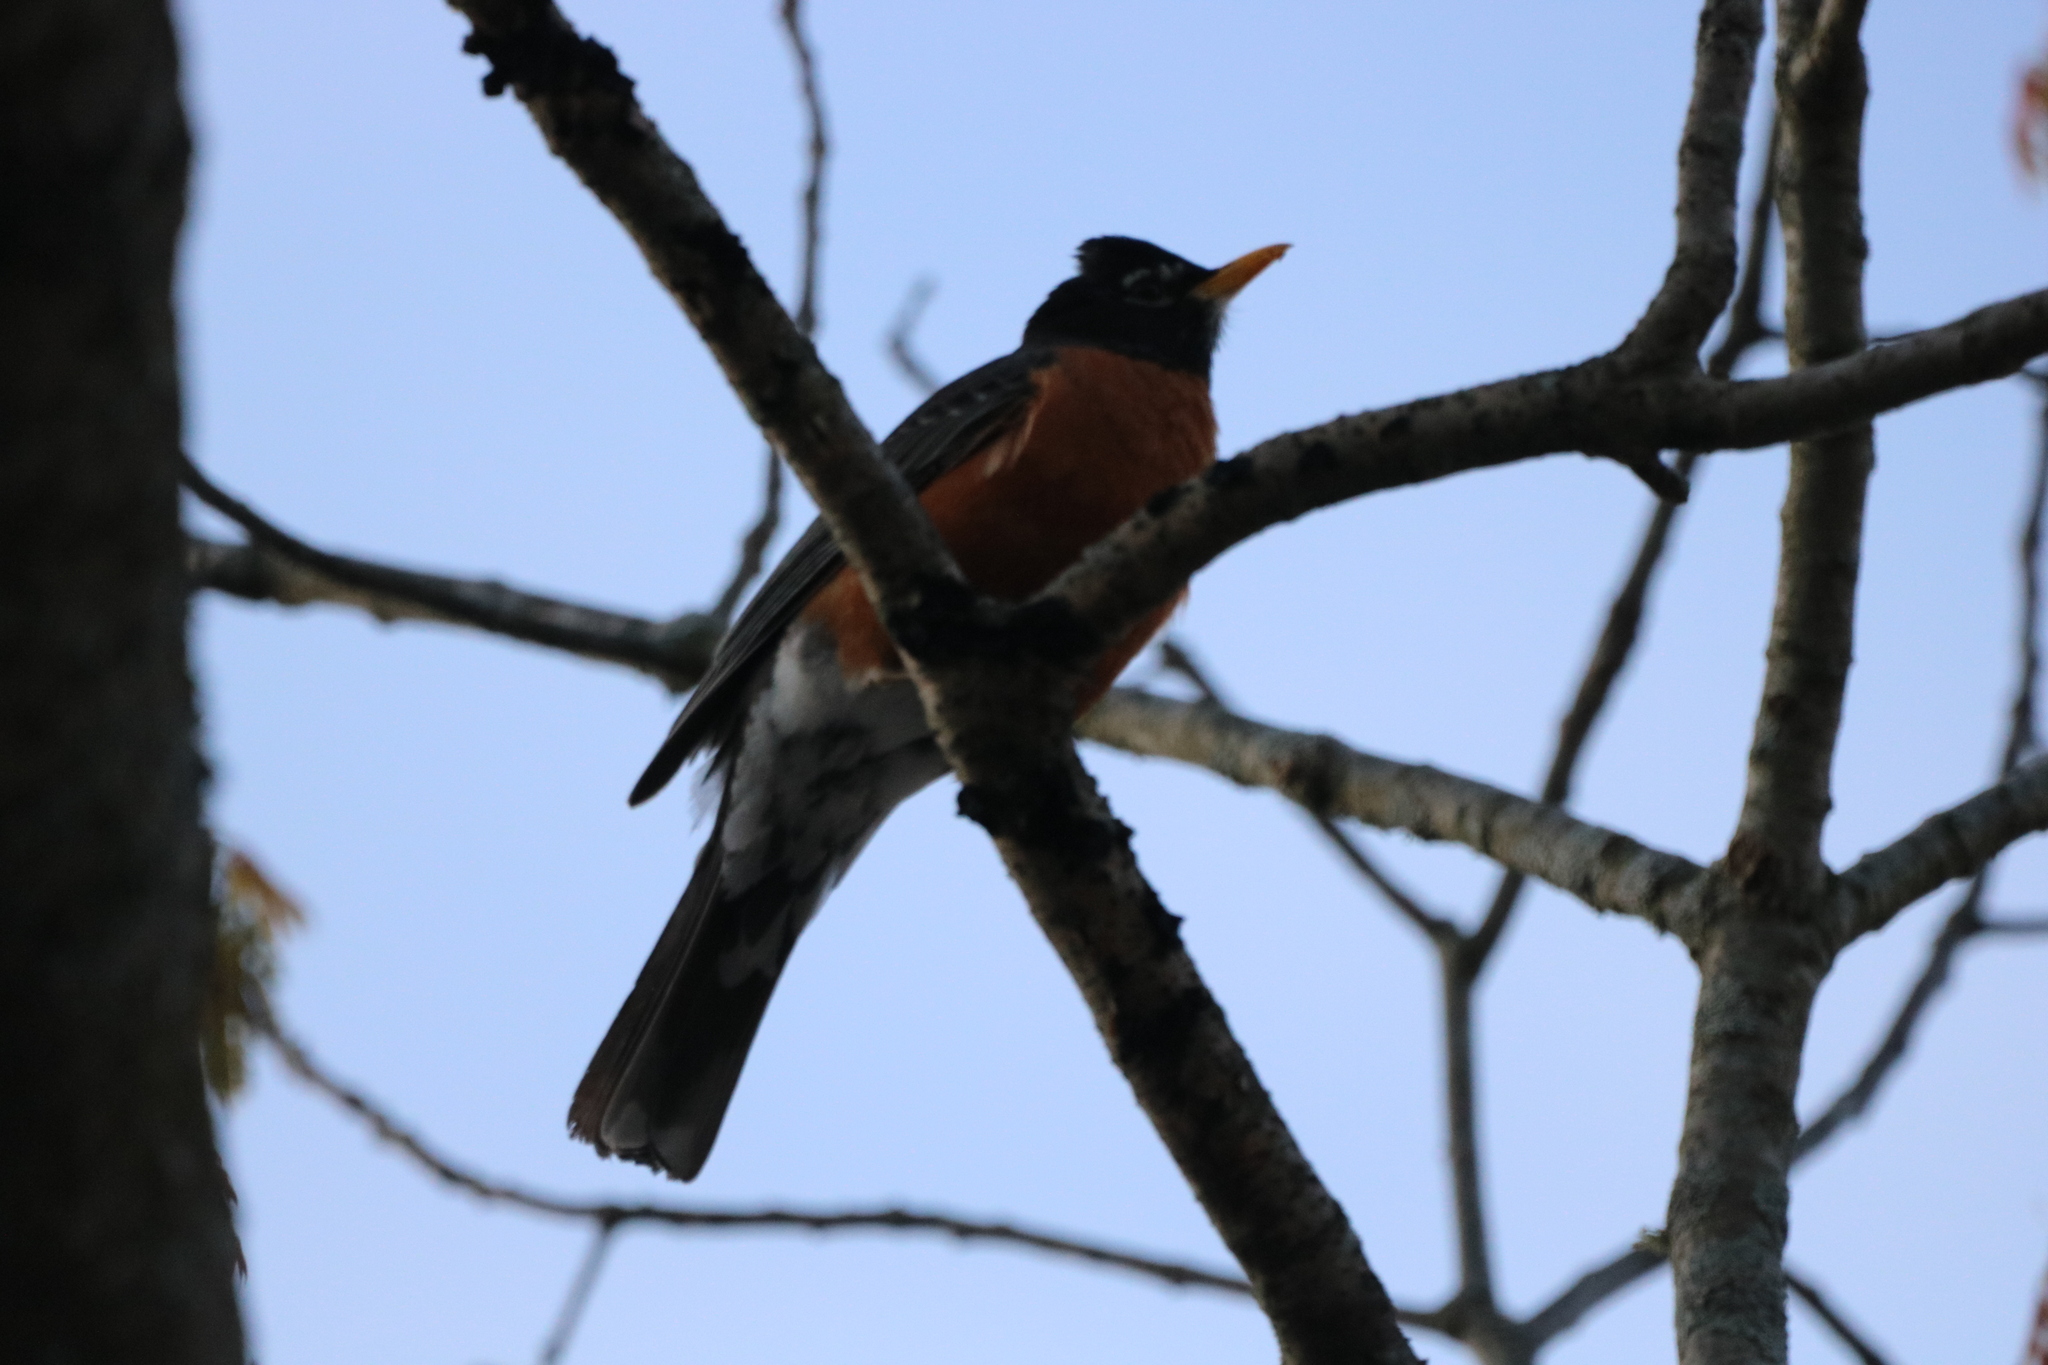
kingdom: Animalia
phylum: Chordata
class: Aves
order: Passeriformes
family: Turdidae
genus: Turdus
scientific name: Turdus migratorius
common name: American robin
